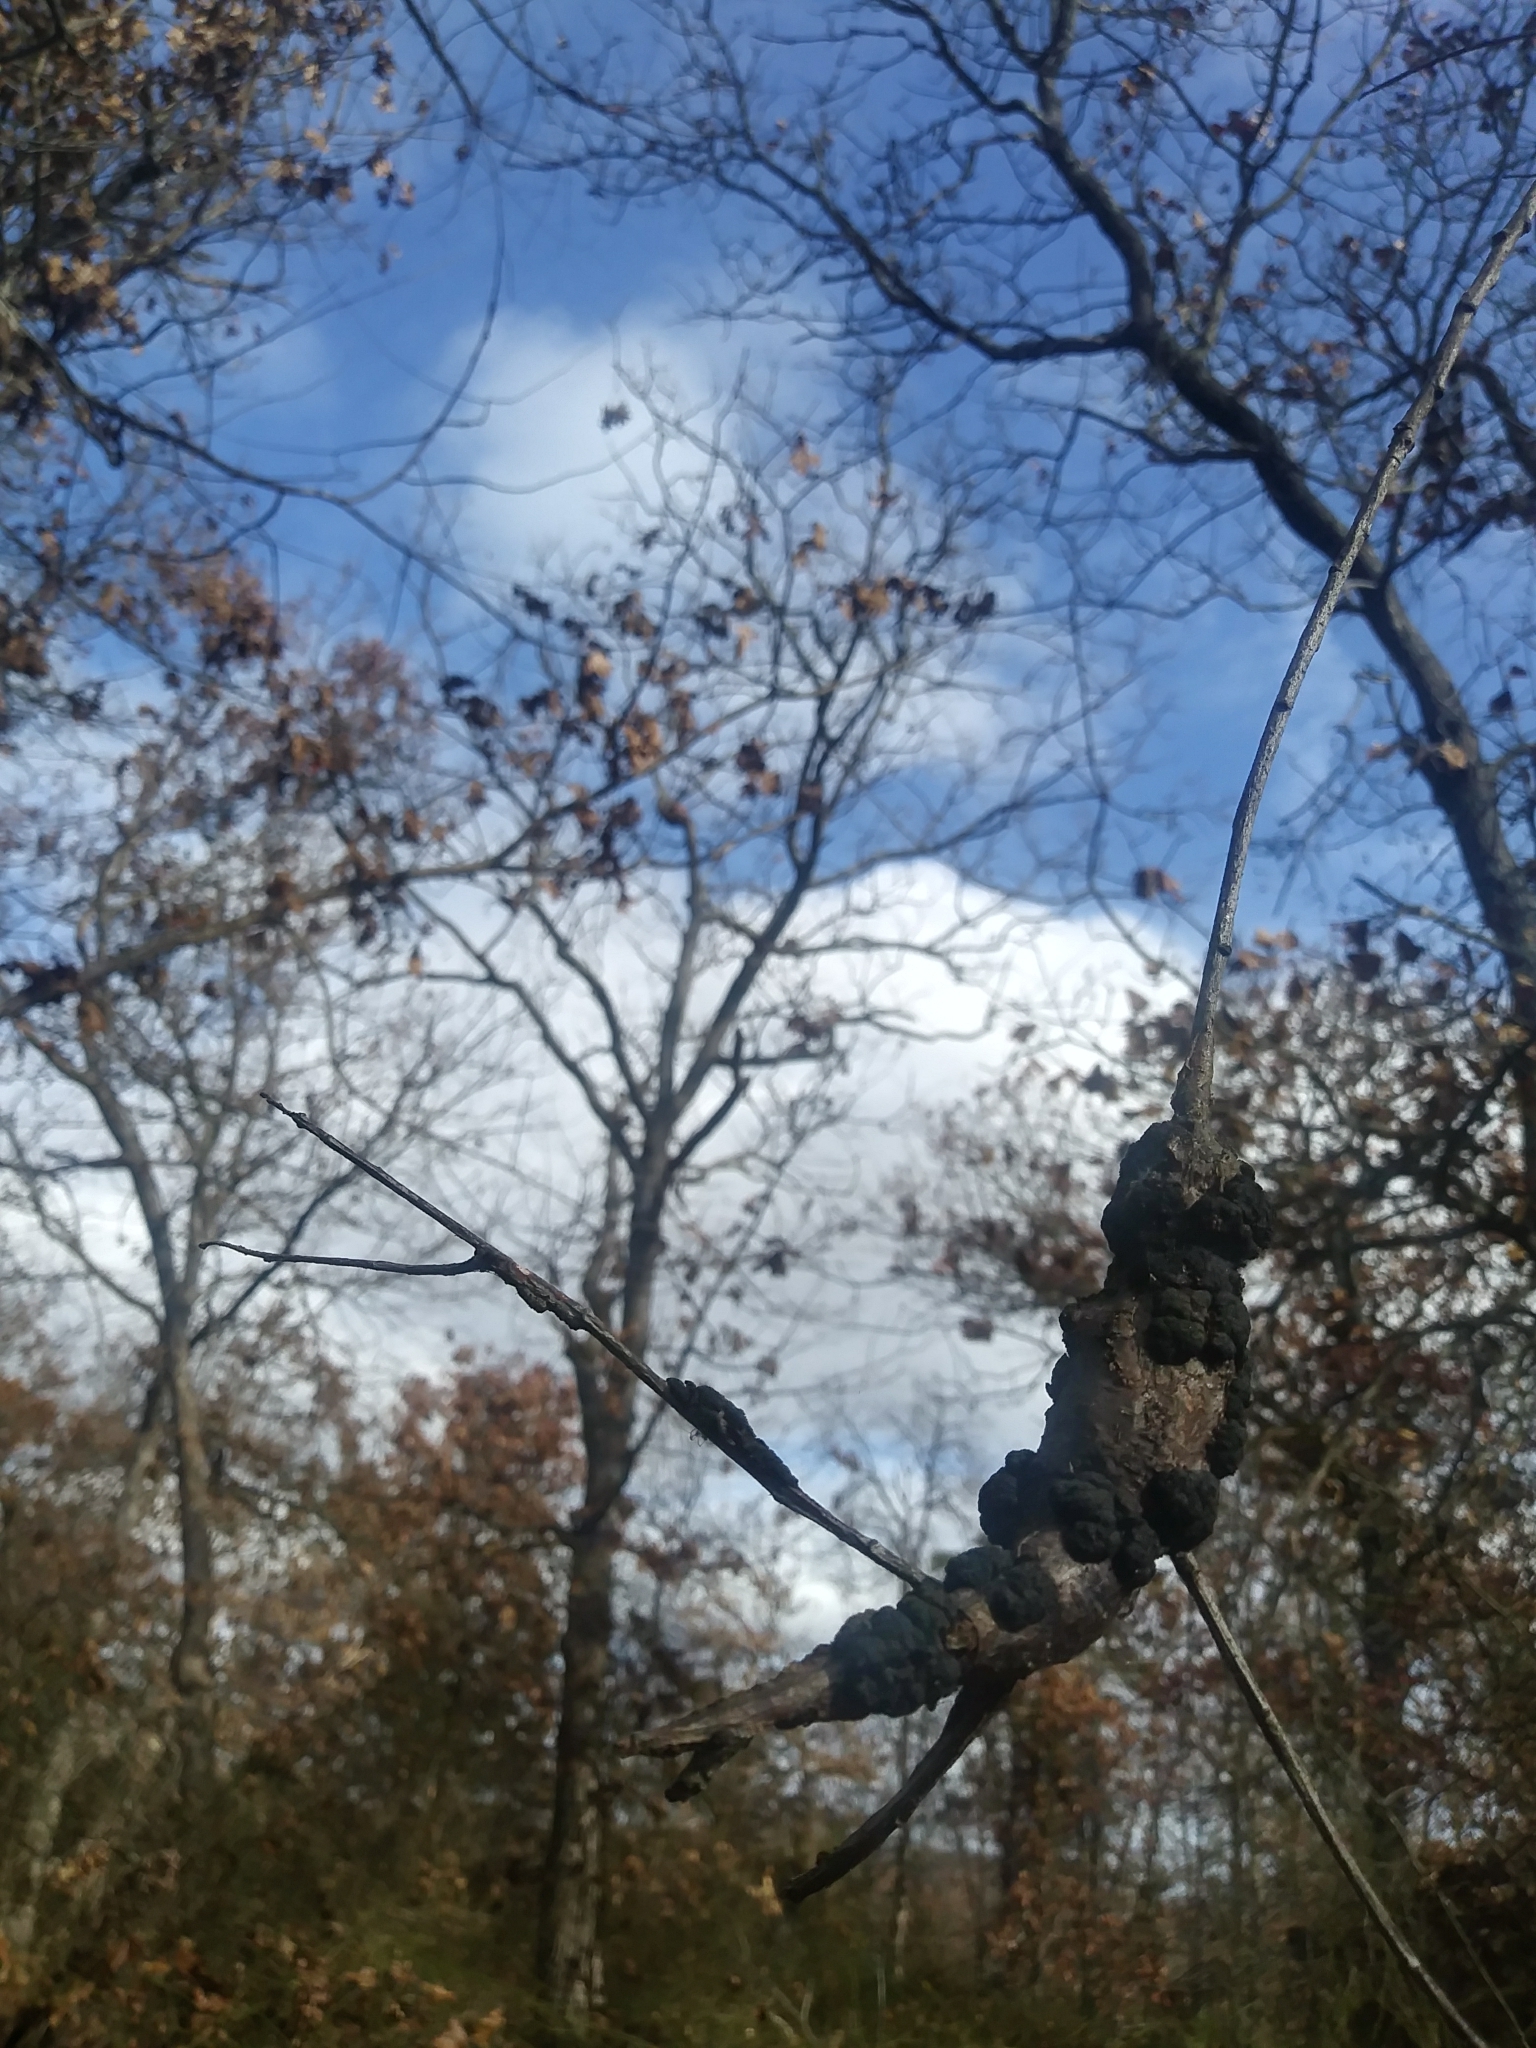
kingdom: Fungi
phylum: Ascomycota
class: Dothideomycetes
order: Venturiales
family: Venturiaceae
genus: Apiosporina
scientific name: Apiosporina morbosa
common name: Black knot
